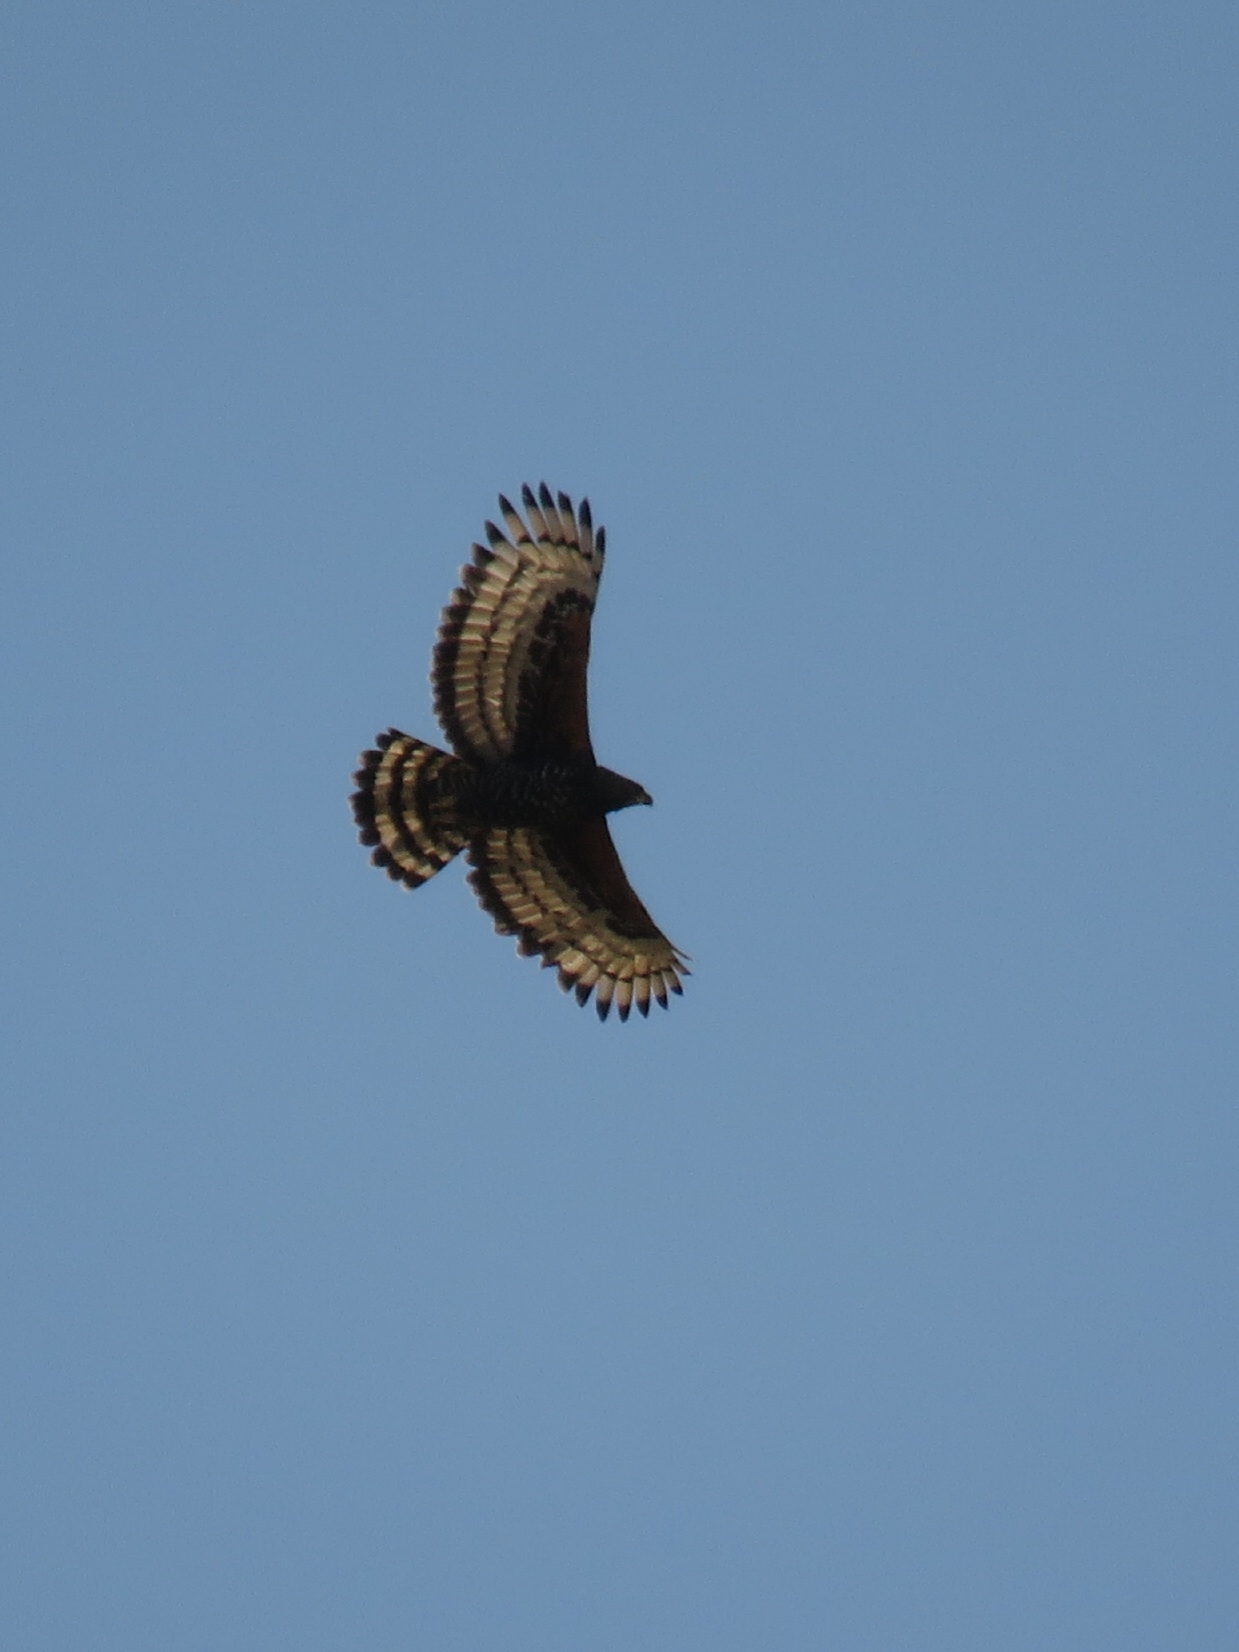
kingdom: Animalia
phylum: Chordata
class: Aves
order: Accipitriformes
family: Accipitridae
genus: Stephanoaetus
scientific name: Stephanoaetus coronatus
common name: Crowned eagle
